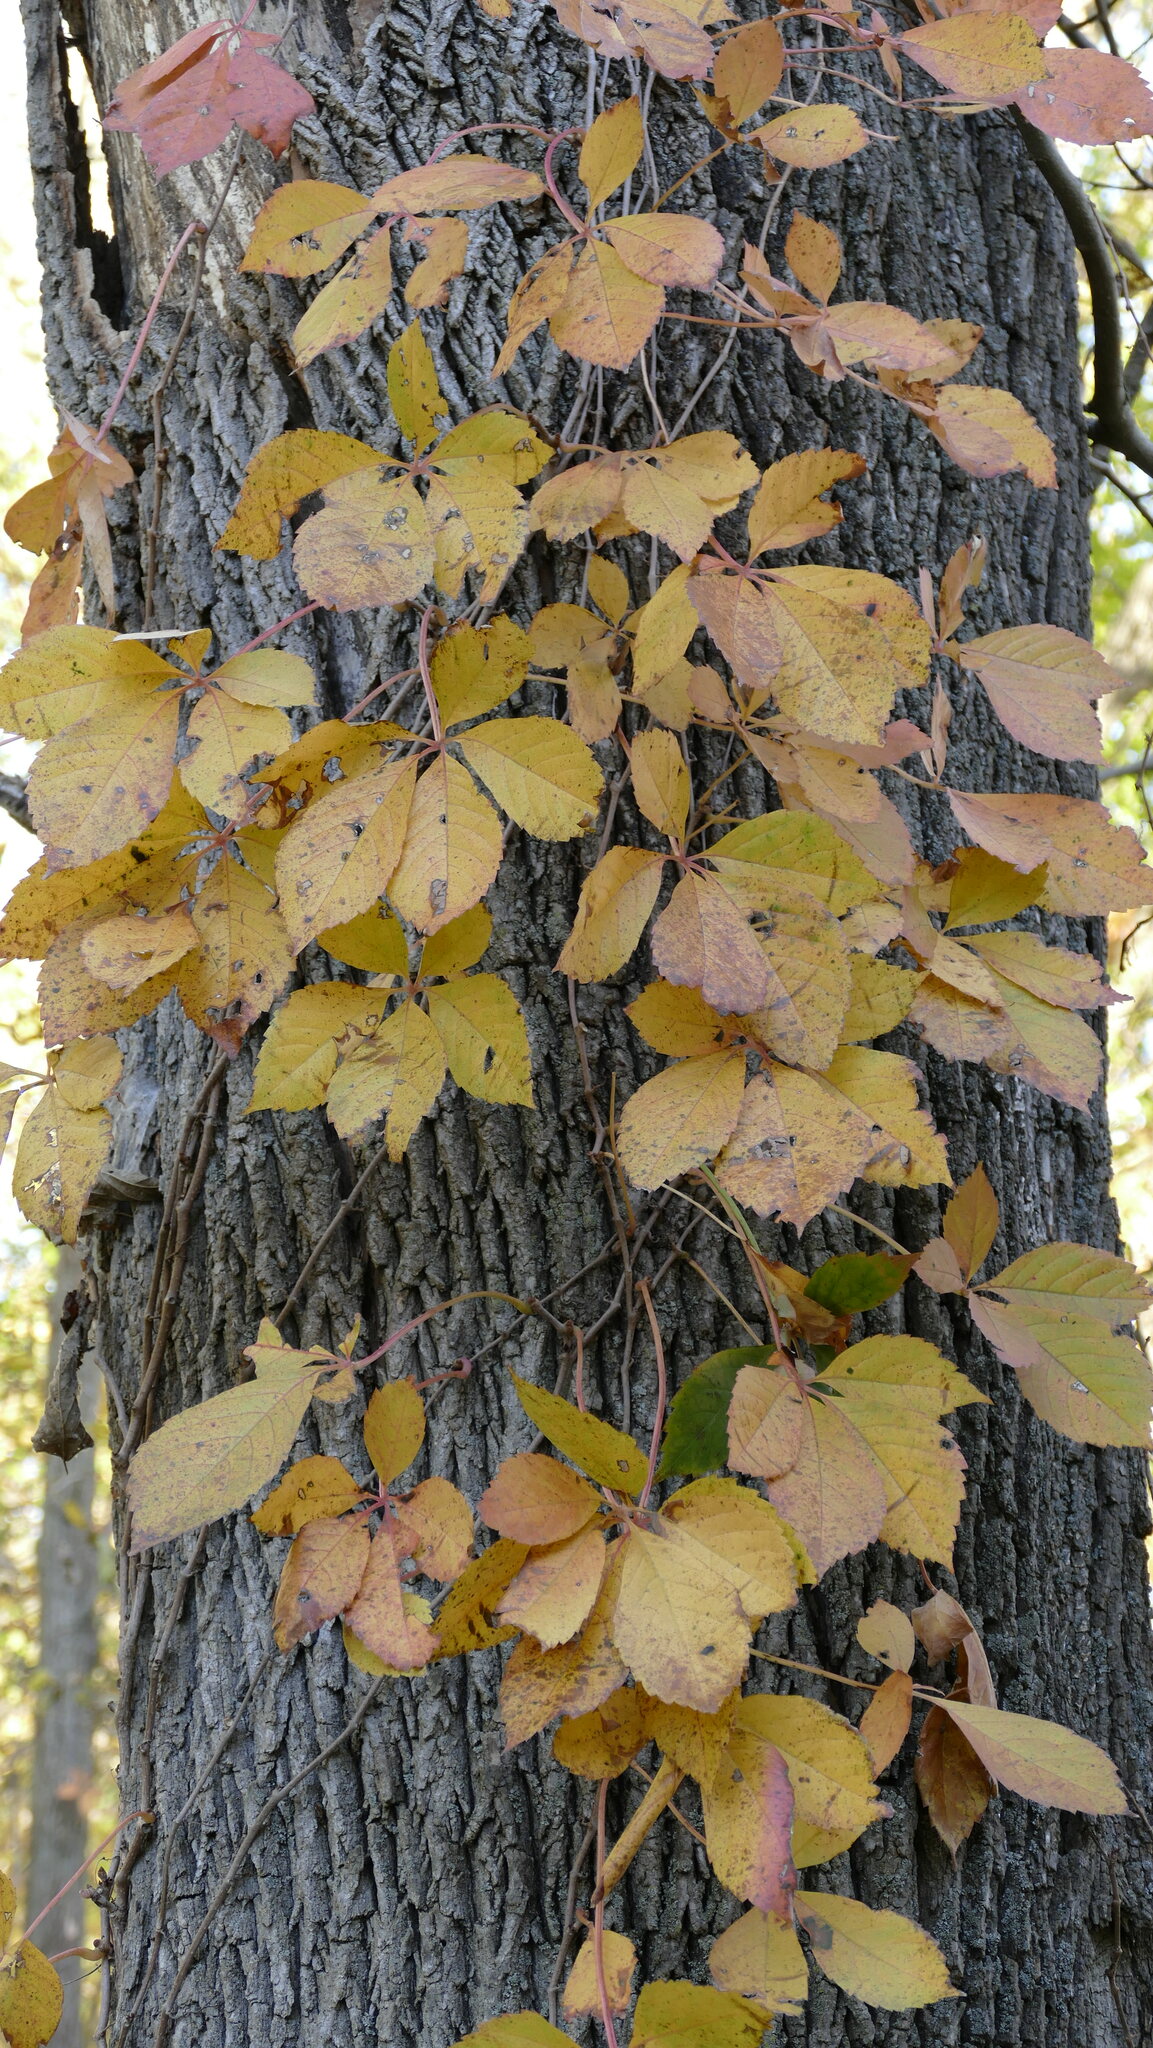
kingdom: Plantae
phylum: Tracheophyta
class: Magnoliopsida
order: Vitales
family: Vitaceae
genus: Parthenocissus
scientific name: Parthenocissus quinquefolia
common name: Virginia-creeper
